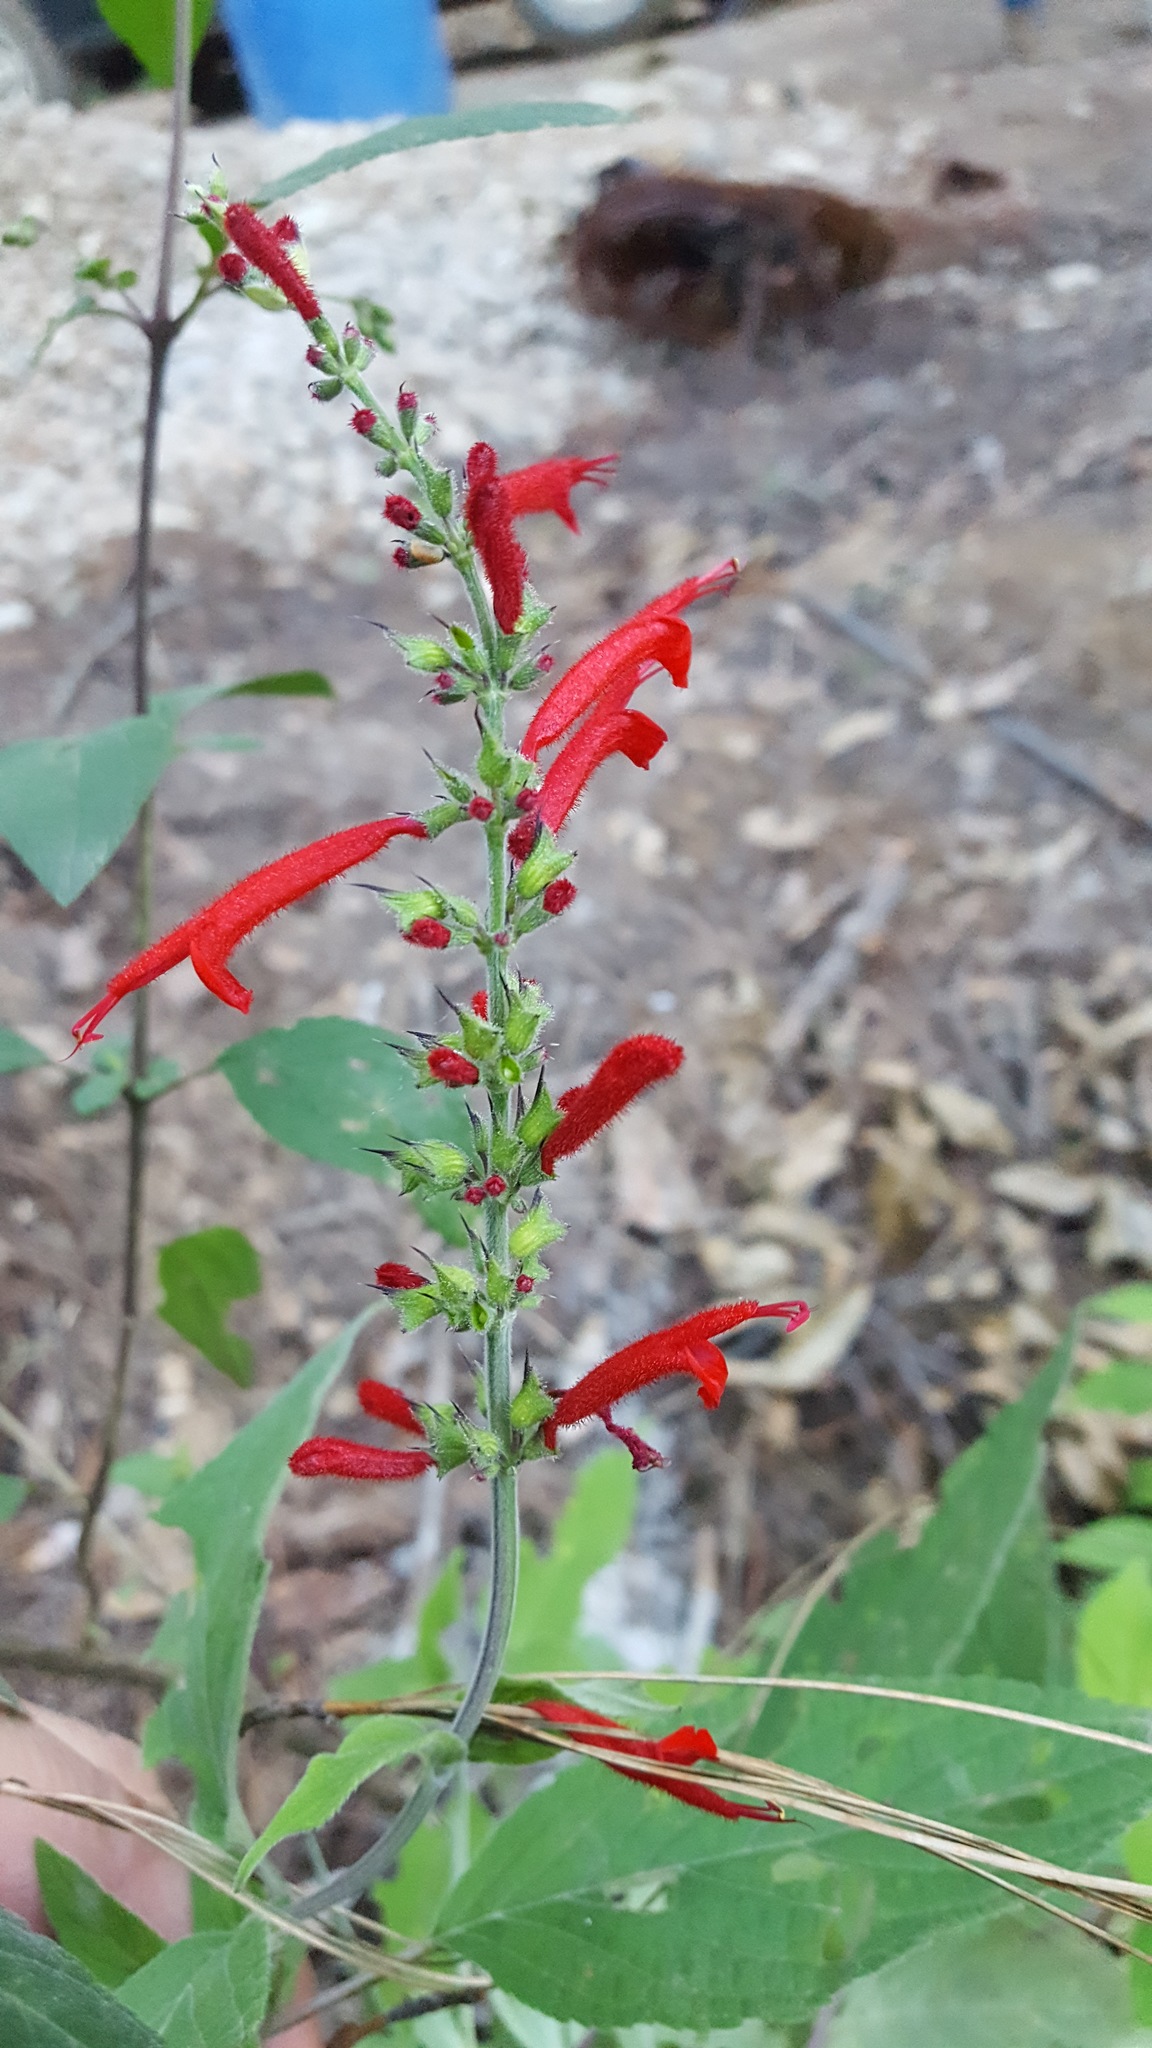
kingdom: Plantae
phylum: Tracheophyta
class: Magnoliopsida
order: Lamiales
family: Lamiaceae
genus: Salvia
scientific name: Salvia cinnabarina
